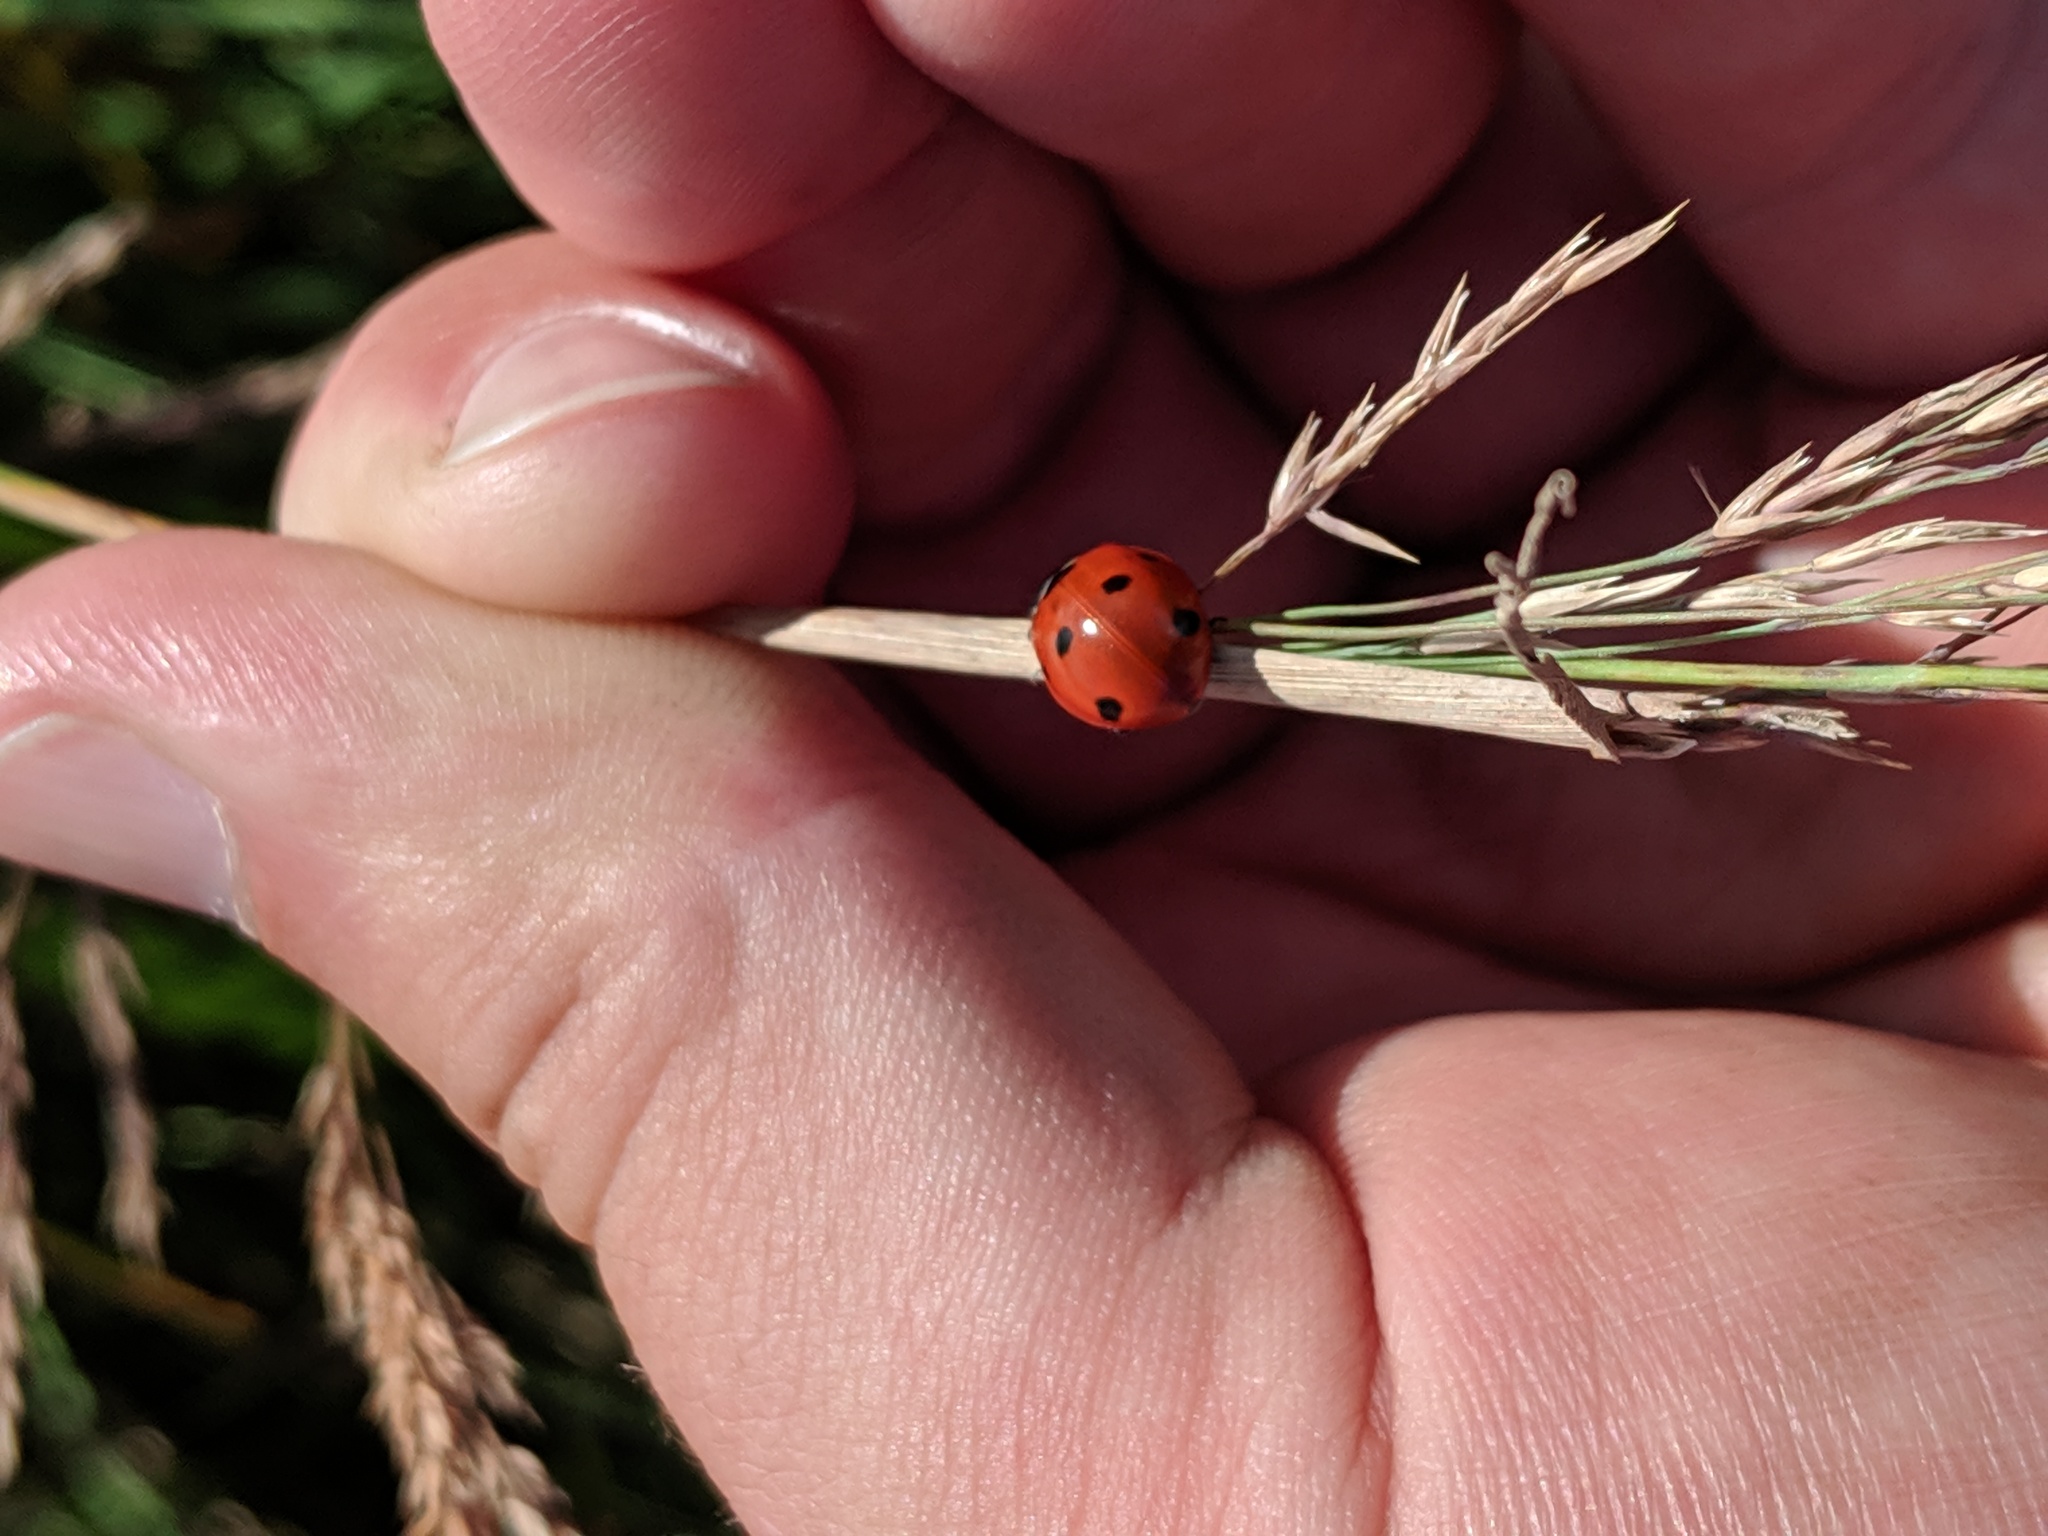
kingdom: Animalia
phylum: Arthropoda
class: Insecta
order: Coleoptera
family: Coccinellidae
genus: Coccinella
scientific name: Coccinella septempunctata
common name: Sevenspotted lady beetle
